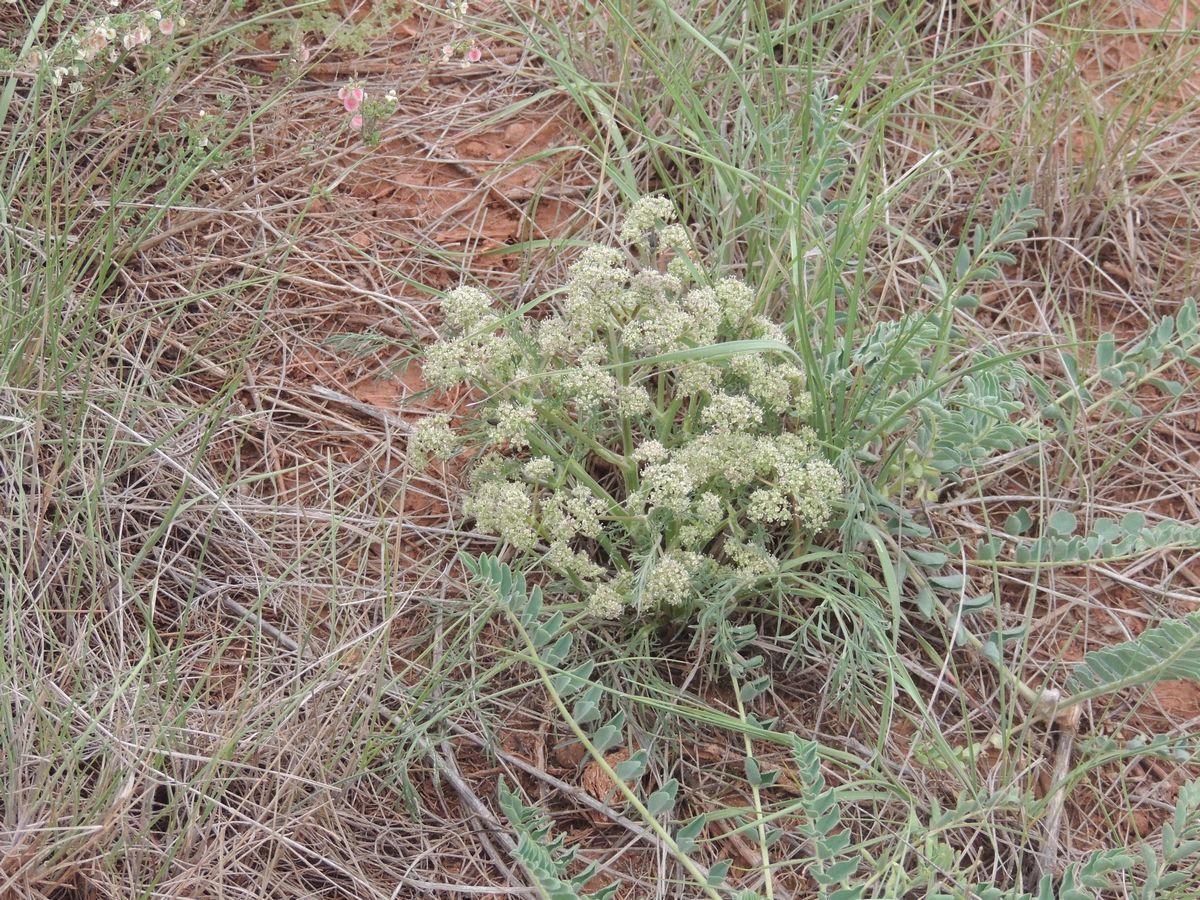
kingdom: Plantae
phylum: Tracheophyta
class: Magnoliopsida
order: Apiales
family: Apiaceae
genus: Trinia
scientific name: Trinia hispida
